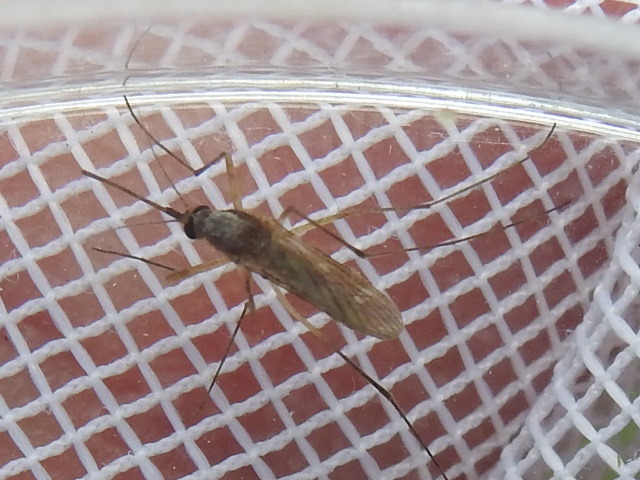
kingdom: Animalia
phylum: Arthropoda
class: Insecta
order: Diptera
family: Culicidae
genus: Aedes
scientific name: Aedes infirmatus
